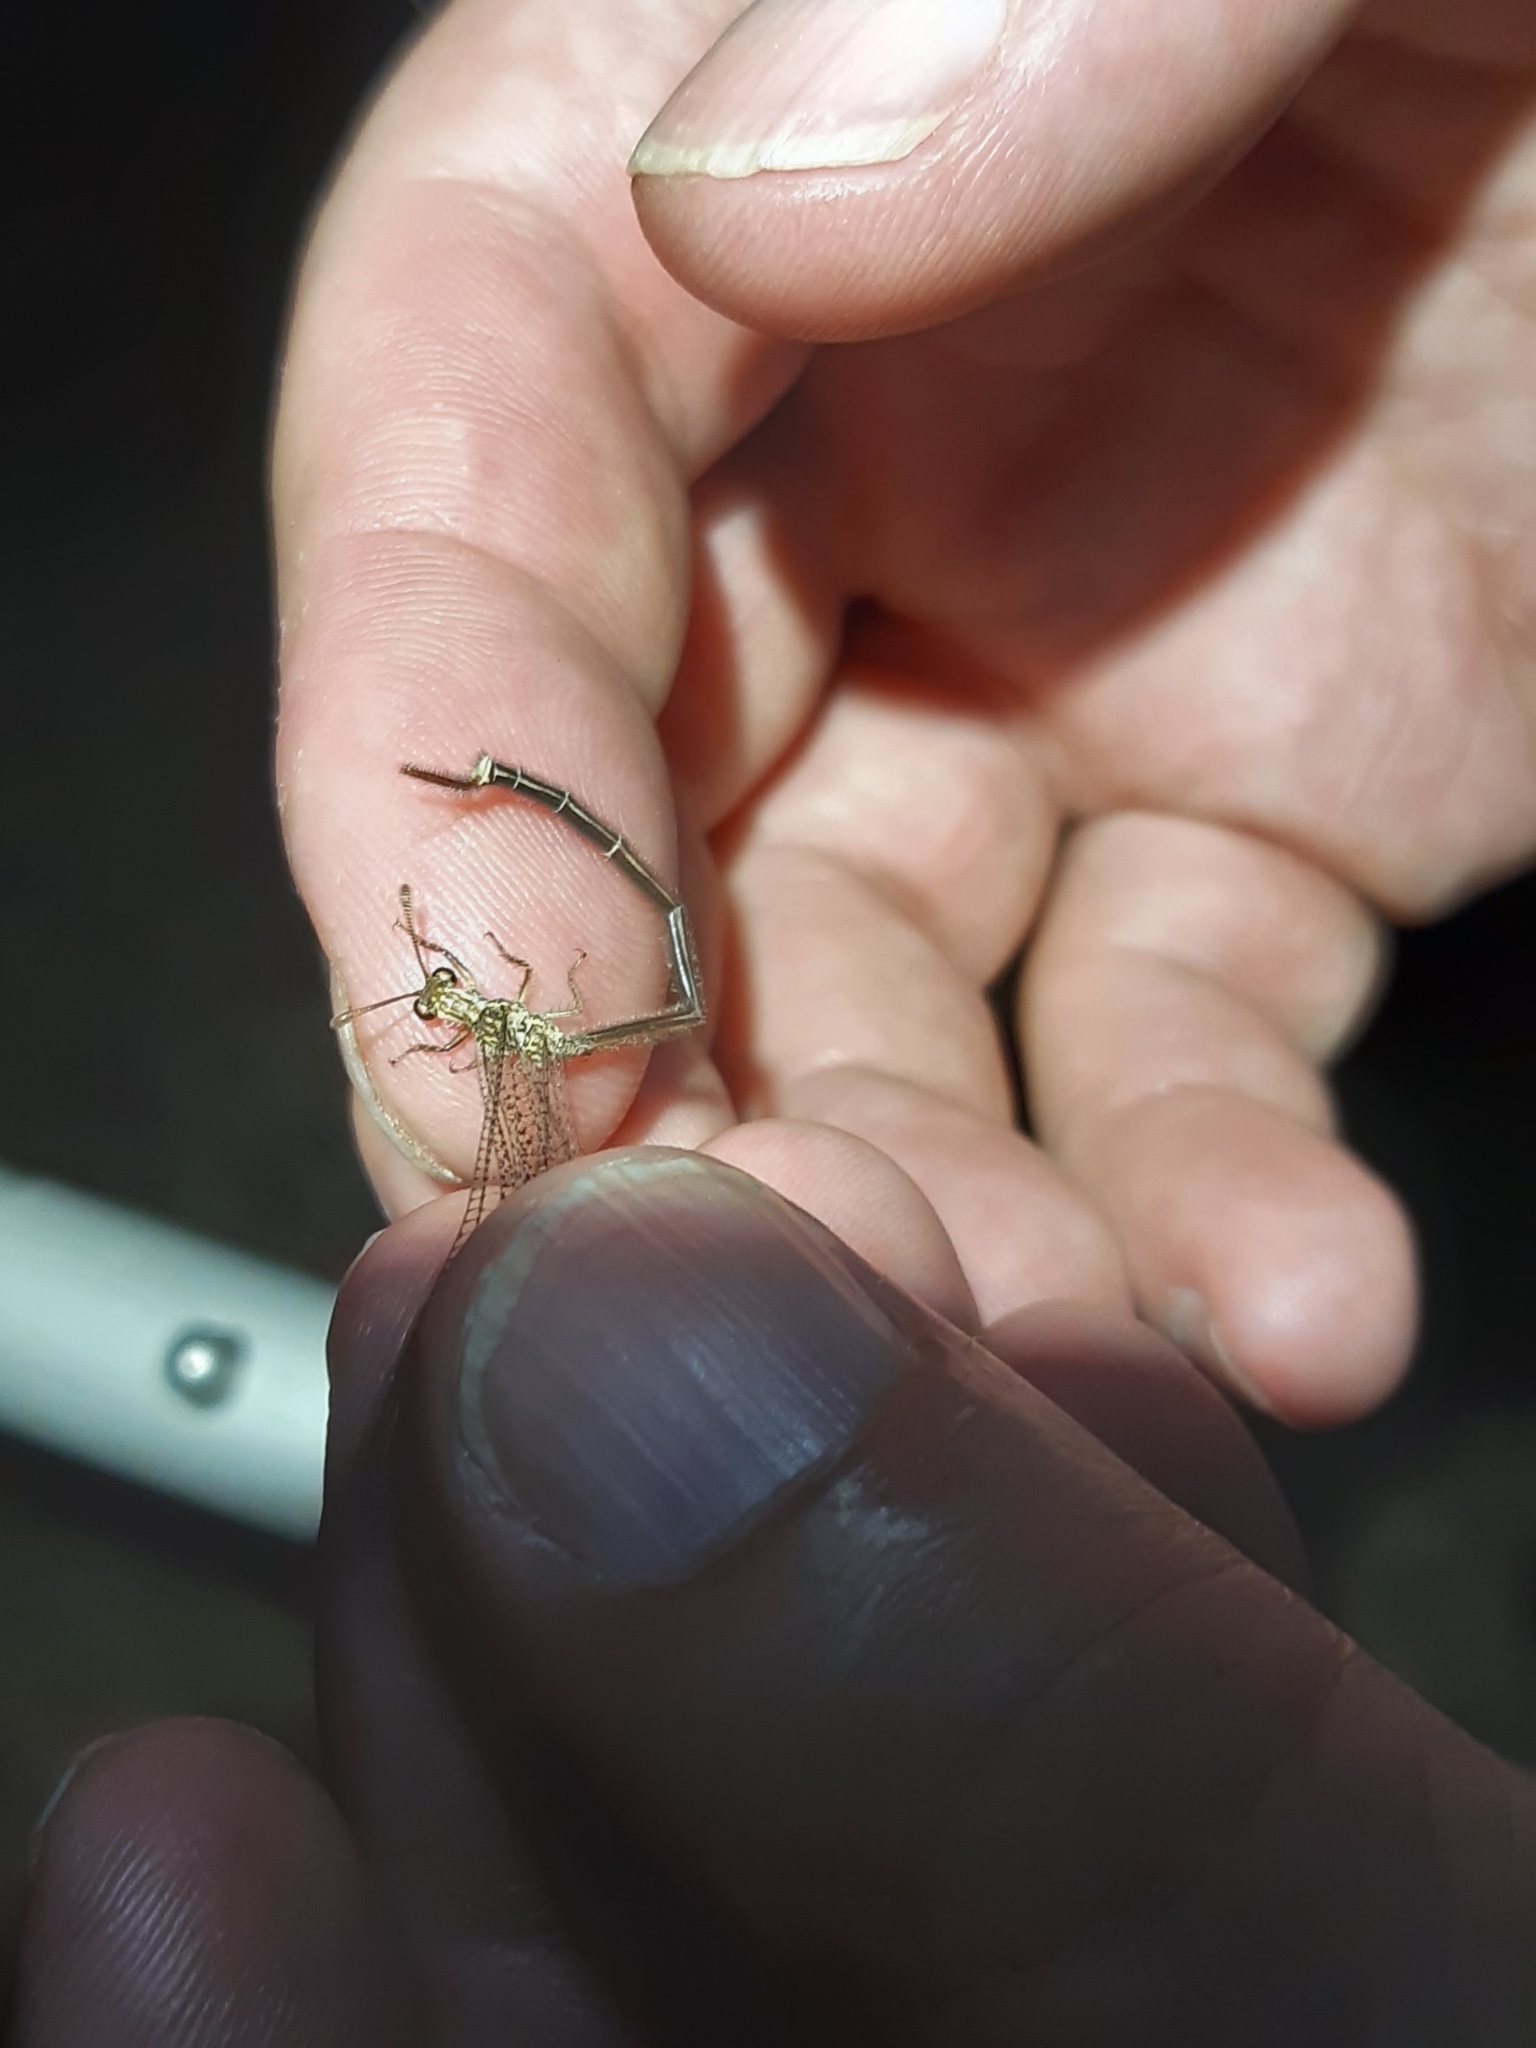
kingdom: Animalia
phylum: Arthropoda
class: Insecta
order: Neuroptera
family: Myrmeleontidae
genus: Argentoleon
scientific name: Argentoleon irrigatus
